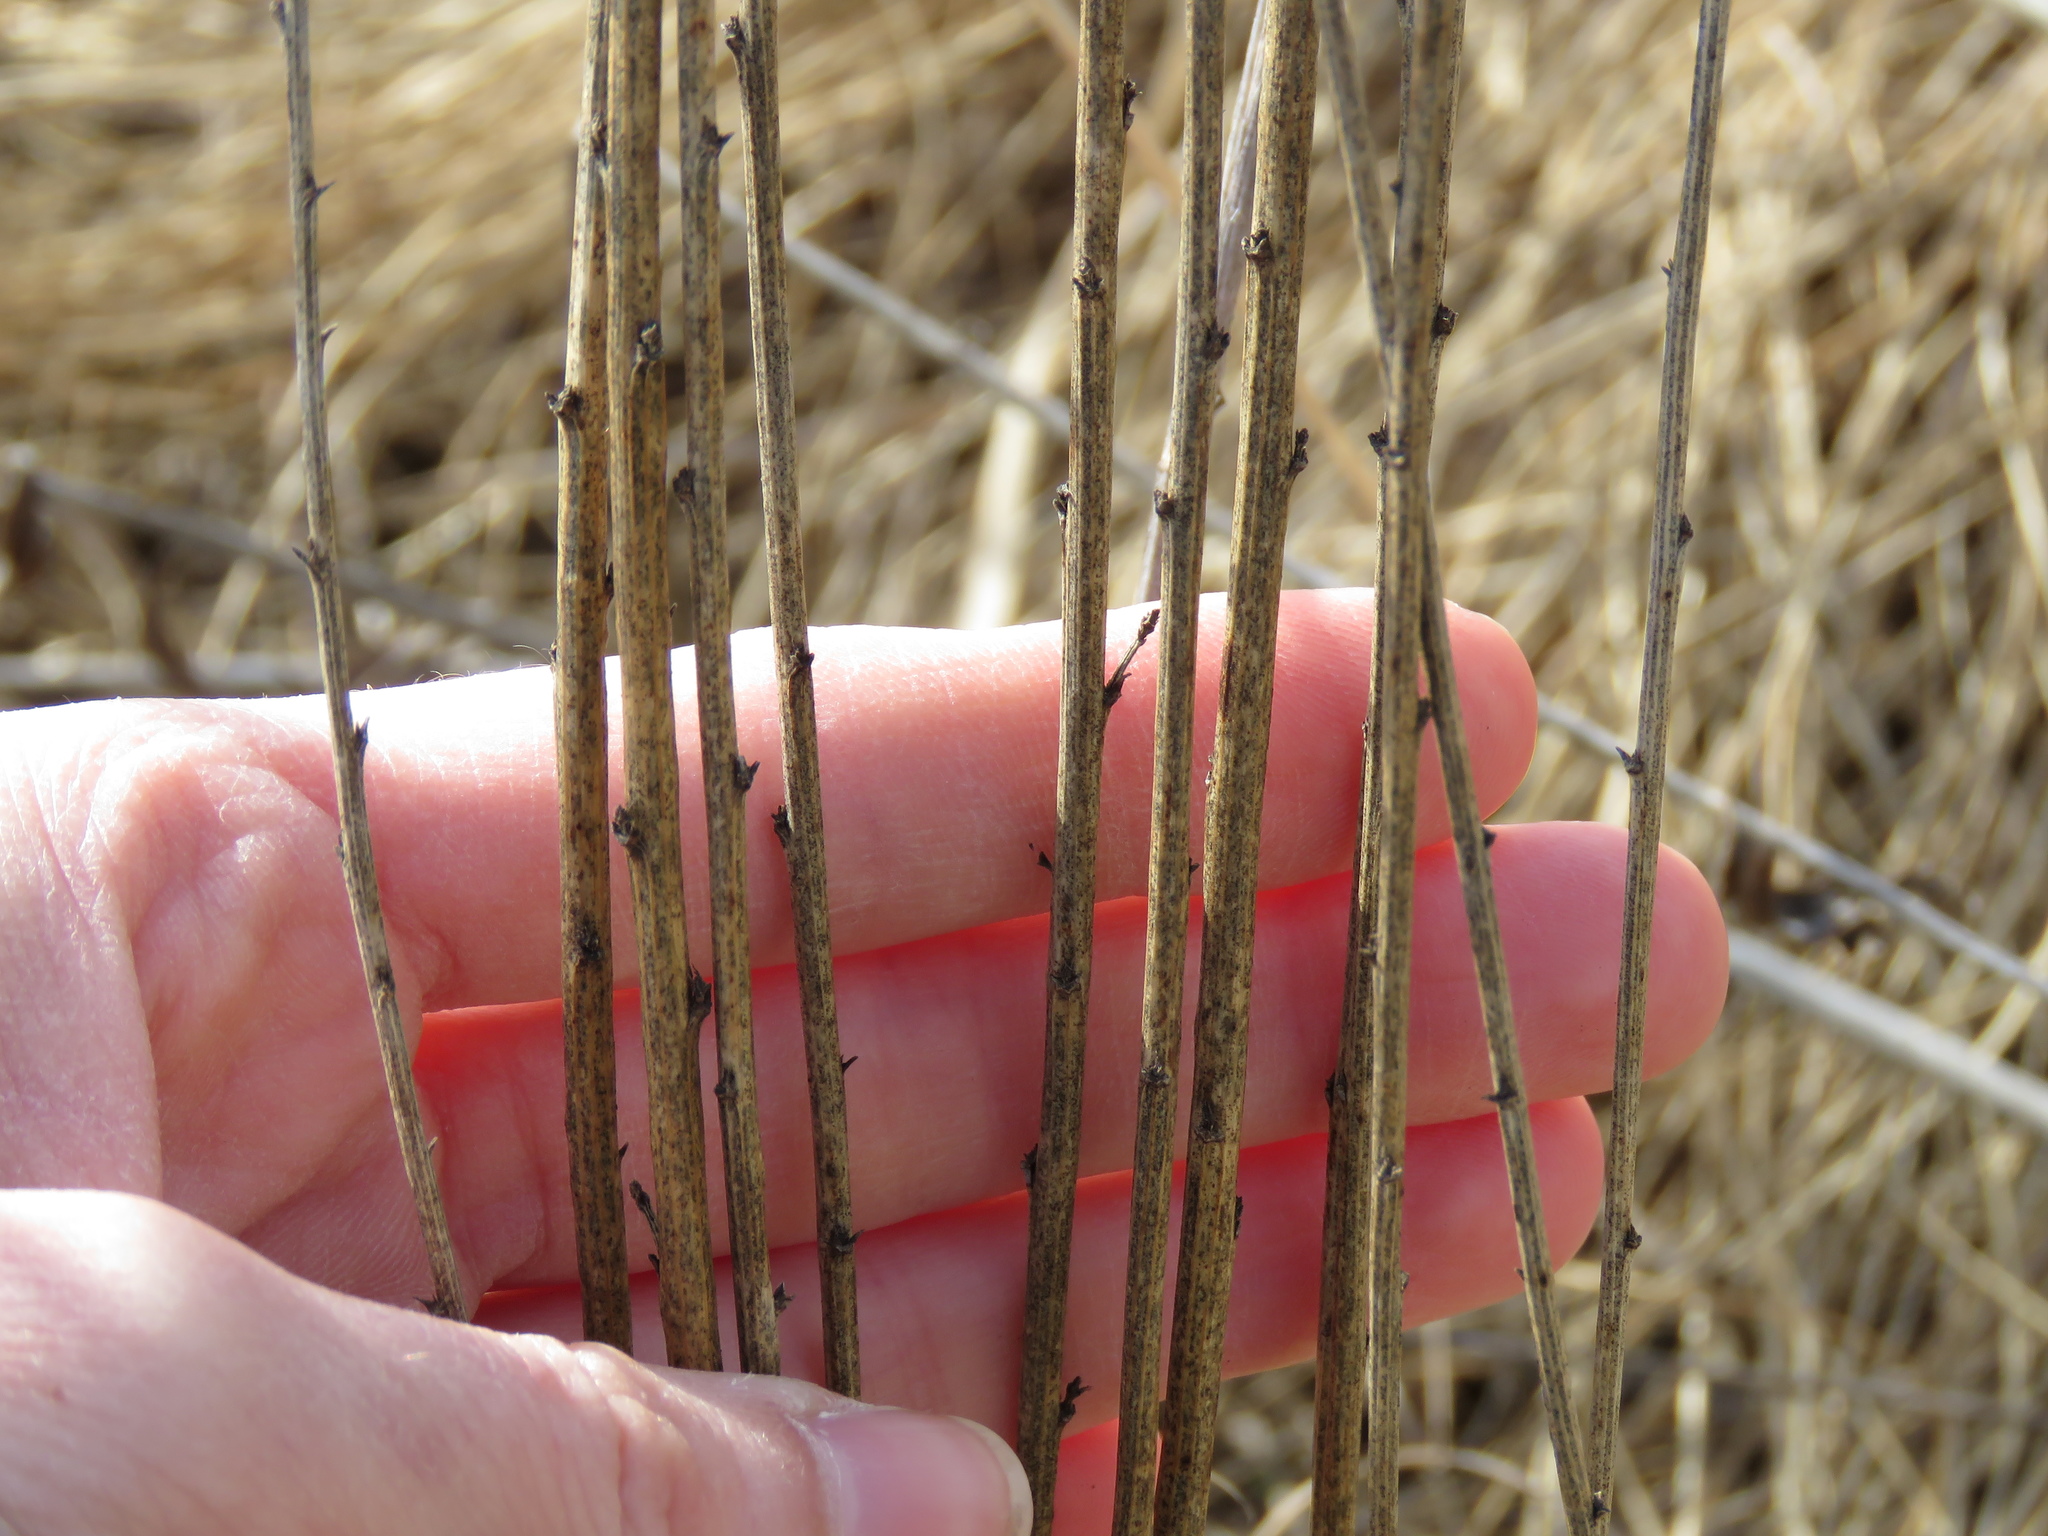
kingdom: Plantae
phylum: Tracheophyta
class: Magnoliopsida
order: Fabales
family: Fabaceae
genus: Dalea
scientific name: Dalea purpurea
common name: Purple prairie-clover
